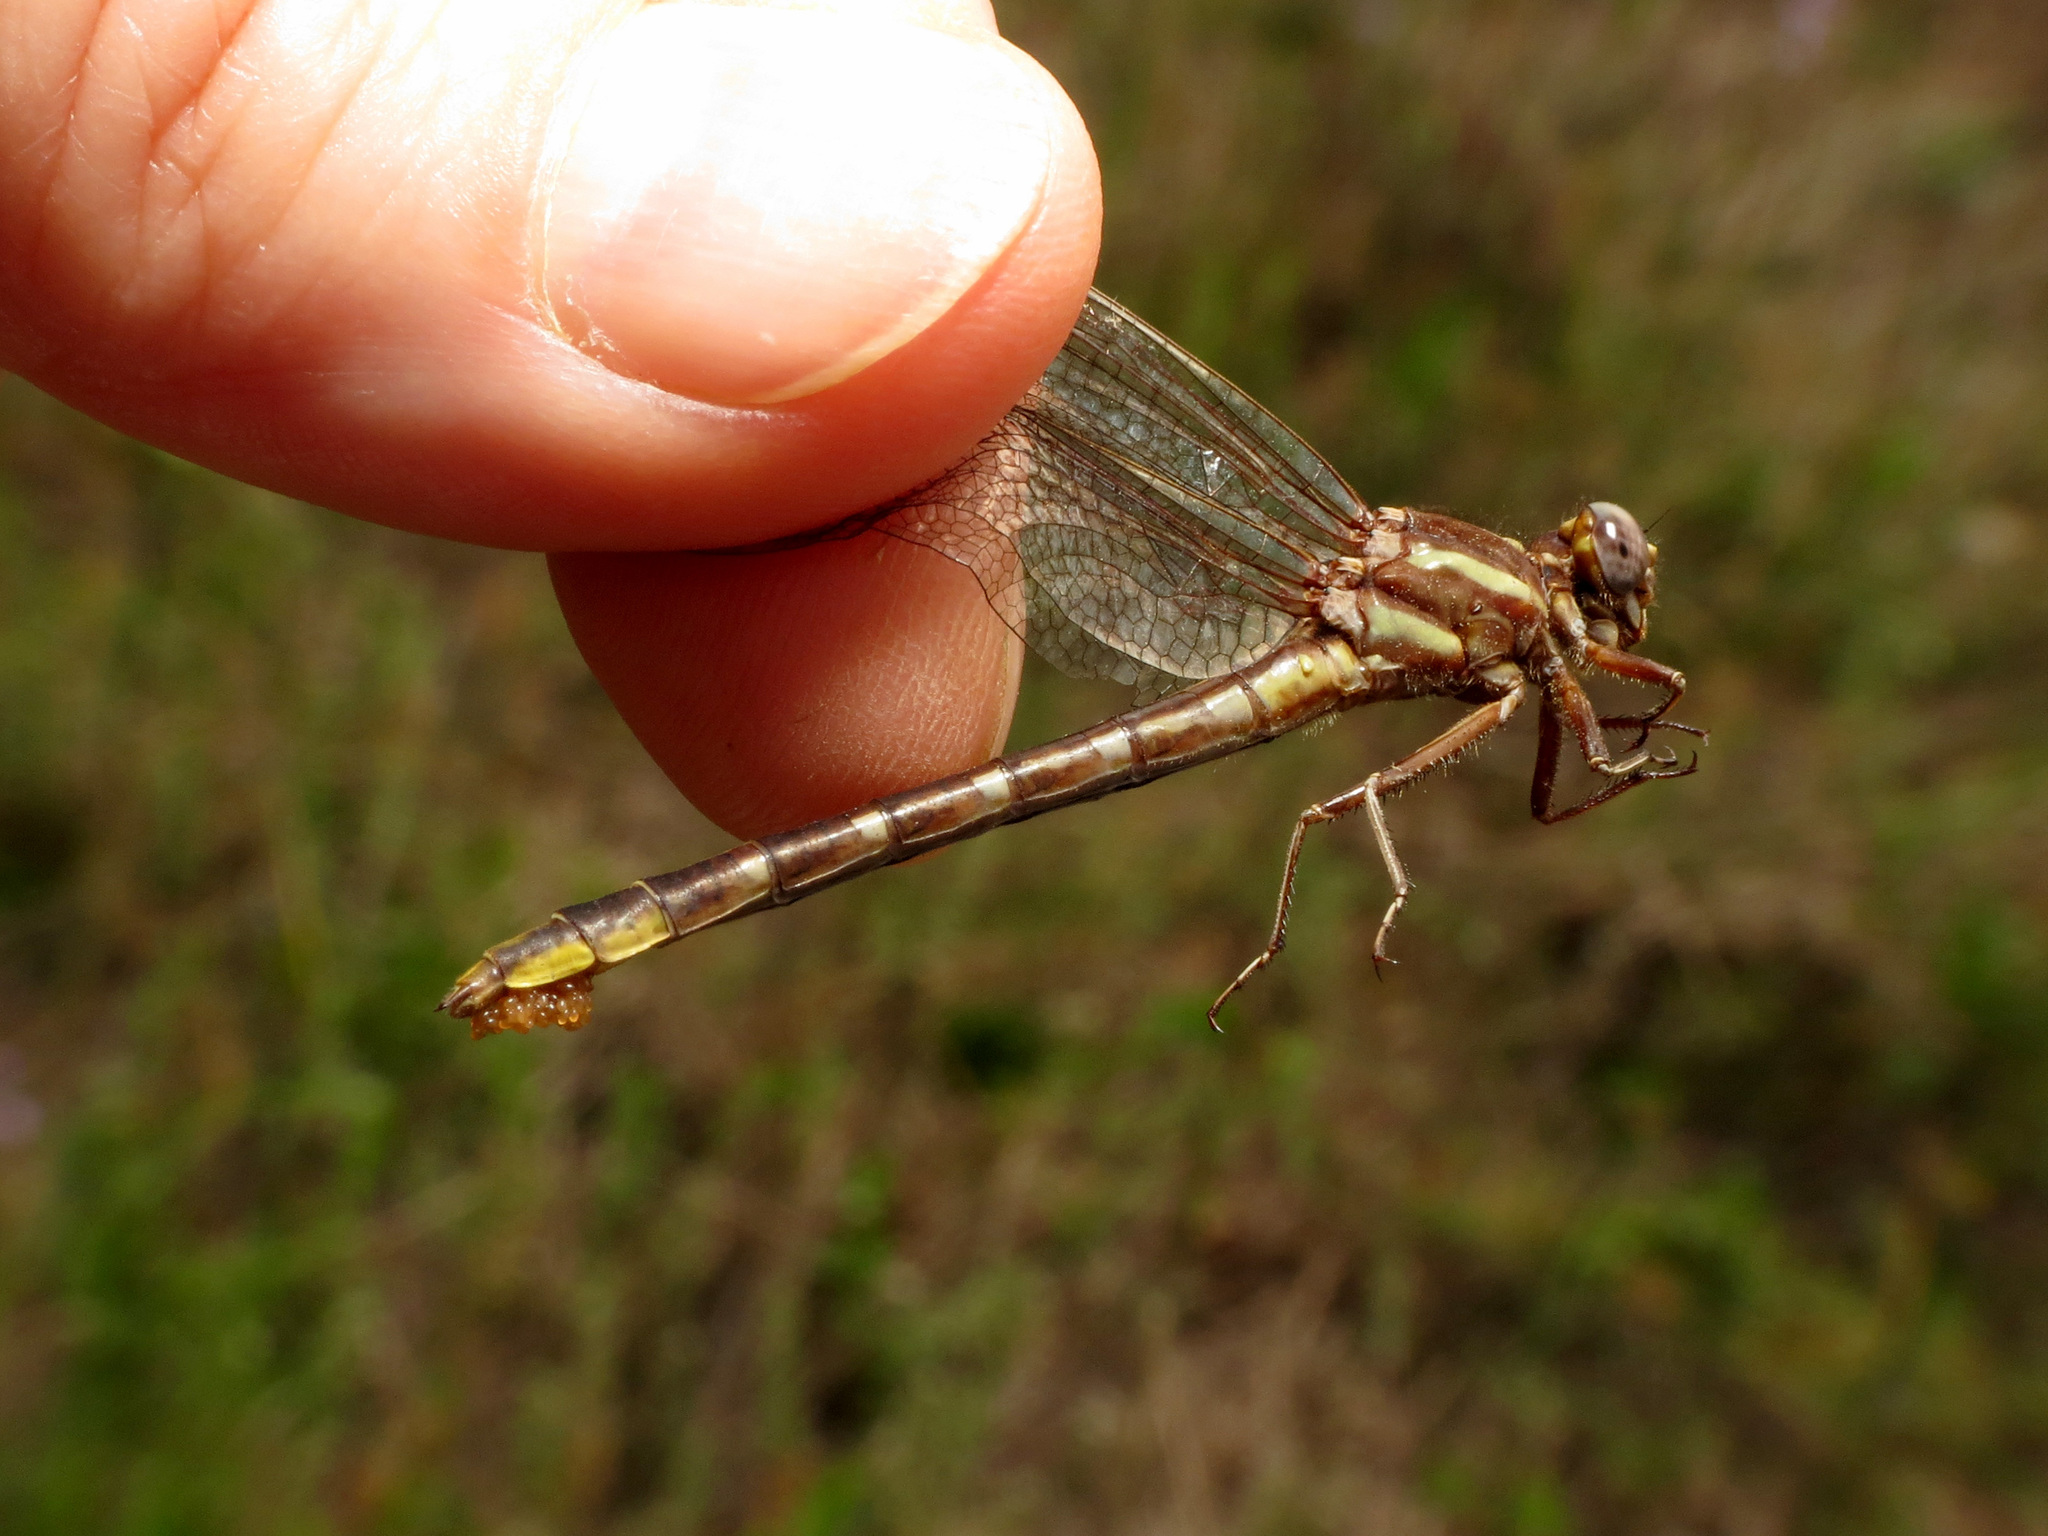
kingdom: Animalia
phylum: Arthropoda
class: Insecta
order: Odonata
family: Gomphidae
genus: Phanogomphus
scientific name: Phanogomphus exilis
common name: Lancet clubtail
